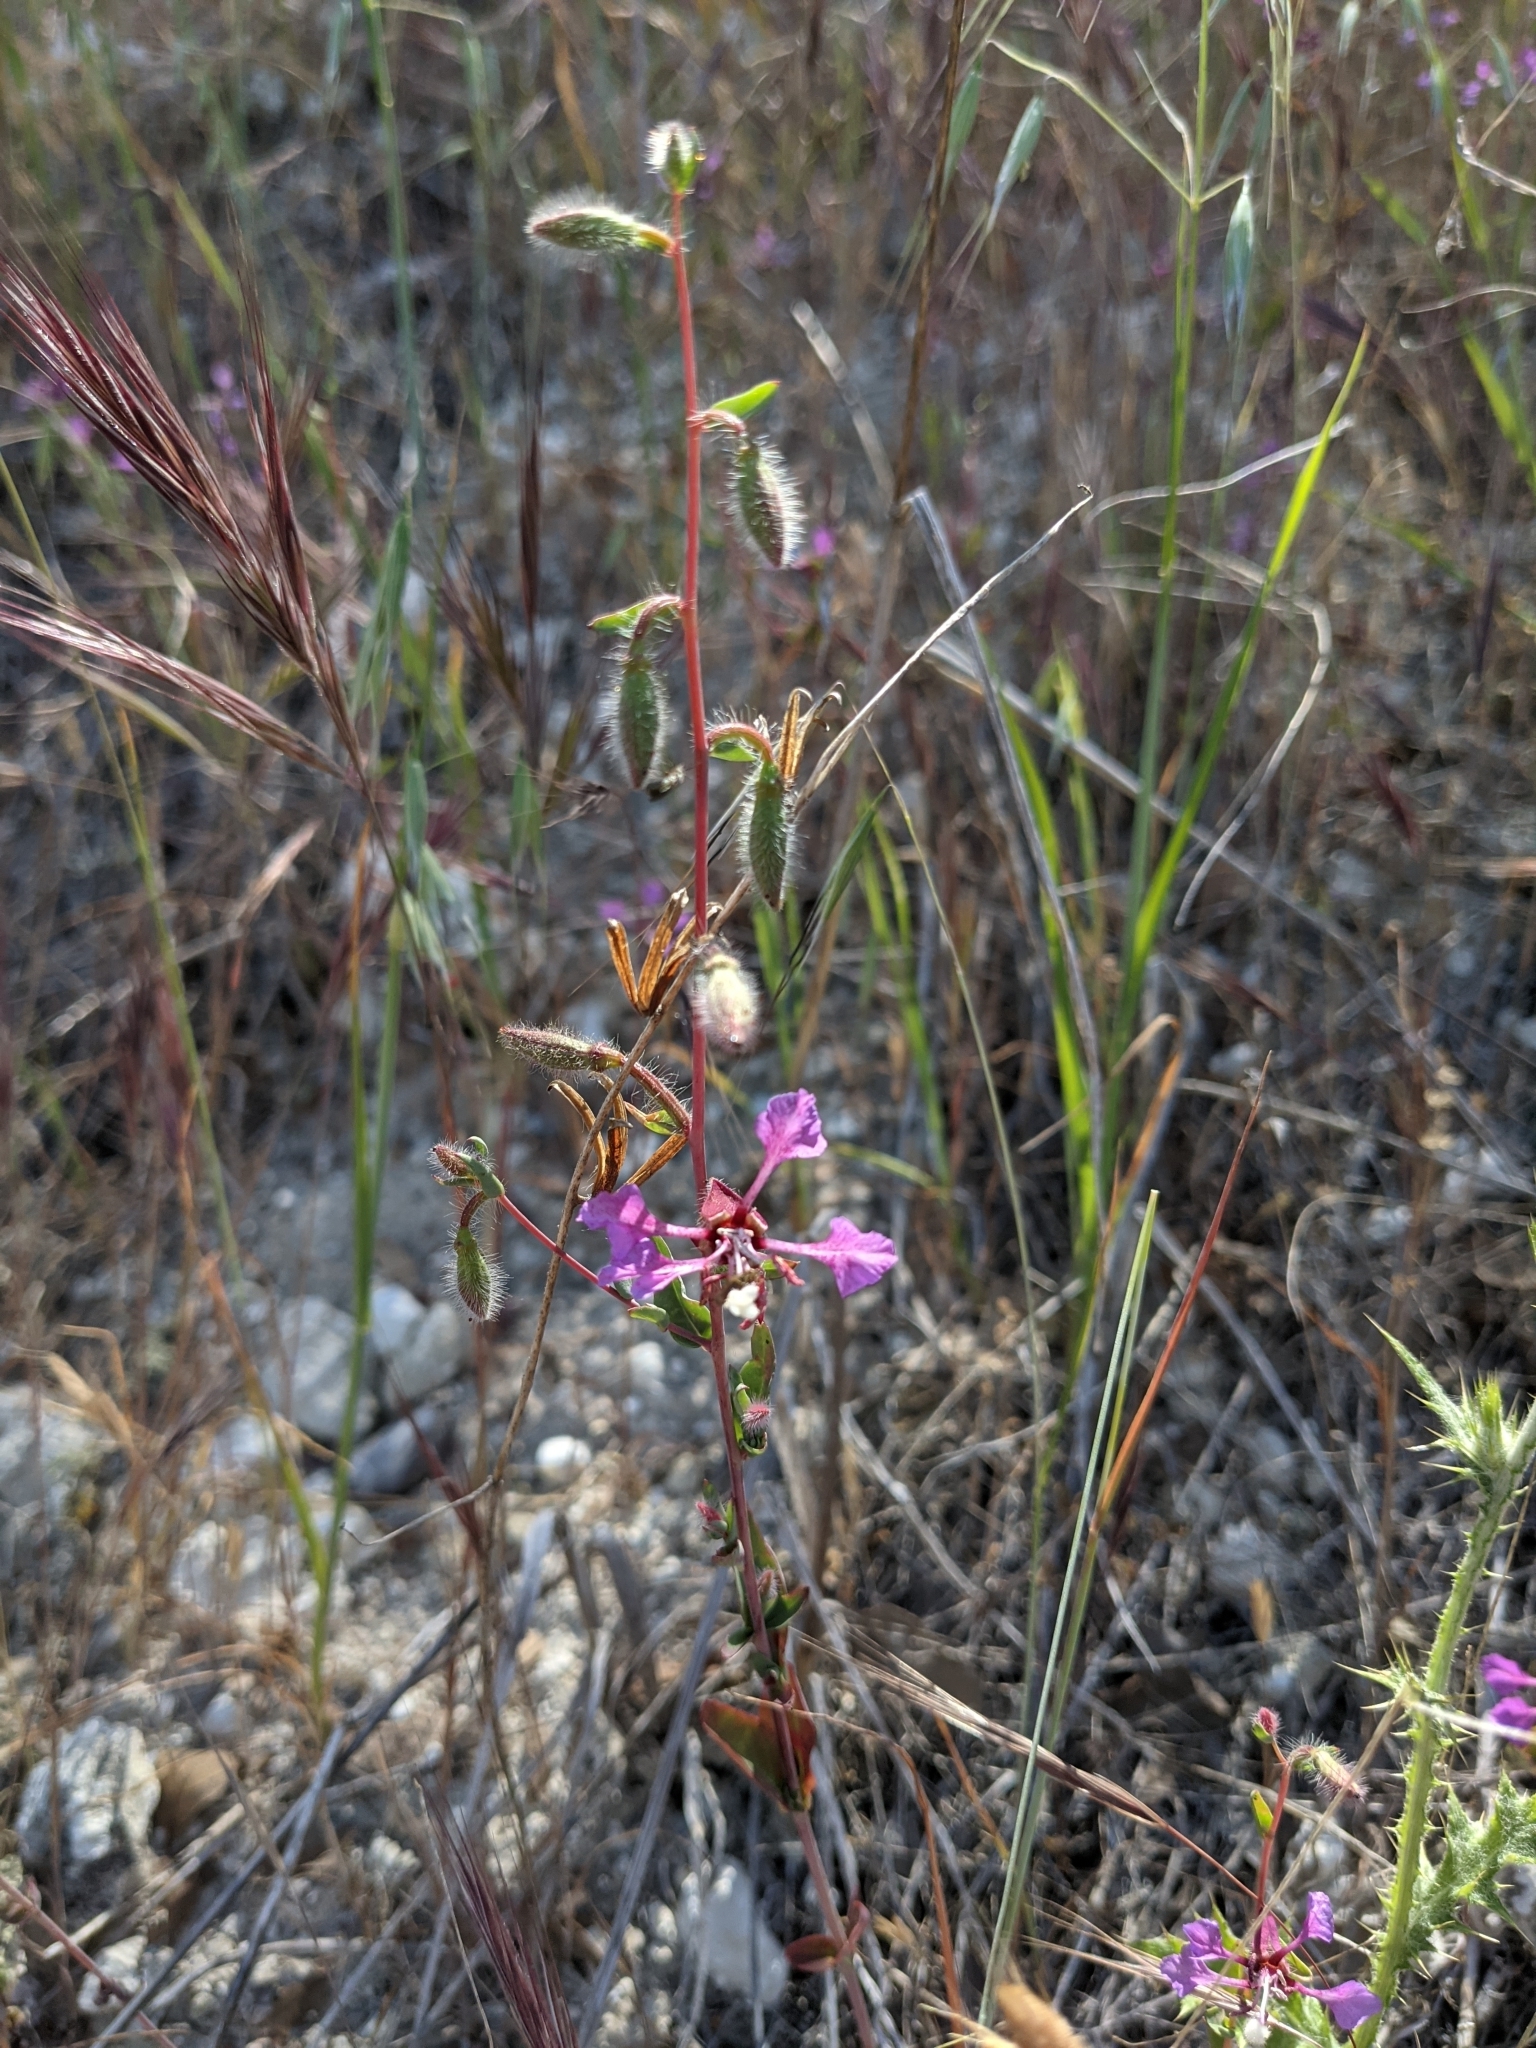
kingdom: Plantae
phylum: Tracheophyta
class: Magnoliopsida
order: Myrtales
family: Onagraceae
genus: Clarkia
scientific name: Clarkia unguiculata
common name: Clarkia
